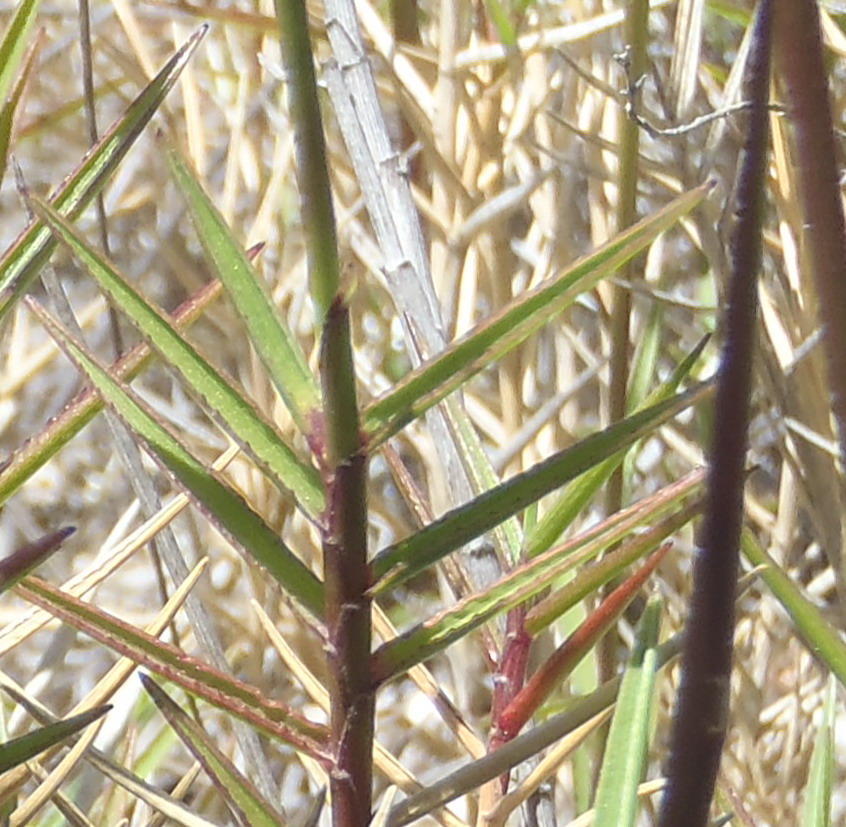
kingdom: Plantae
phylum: Tracheophyta
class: Liliopsida
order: Poales
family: Poaceae
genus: Urochloa
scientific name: Urochloa serrata
